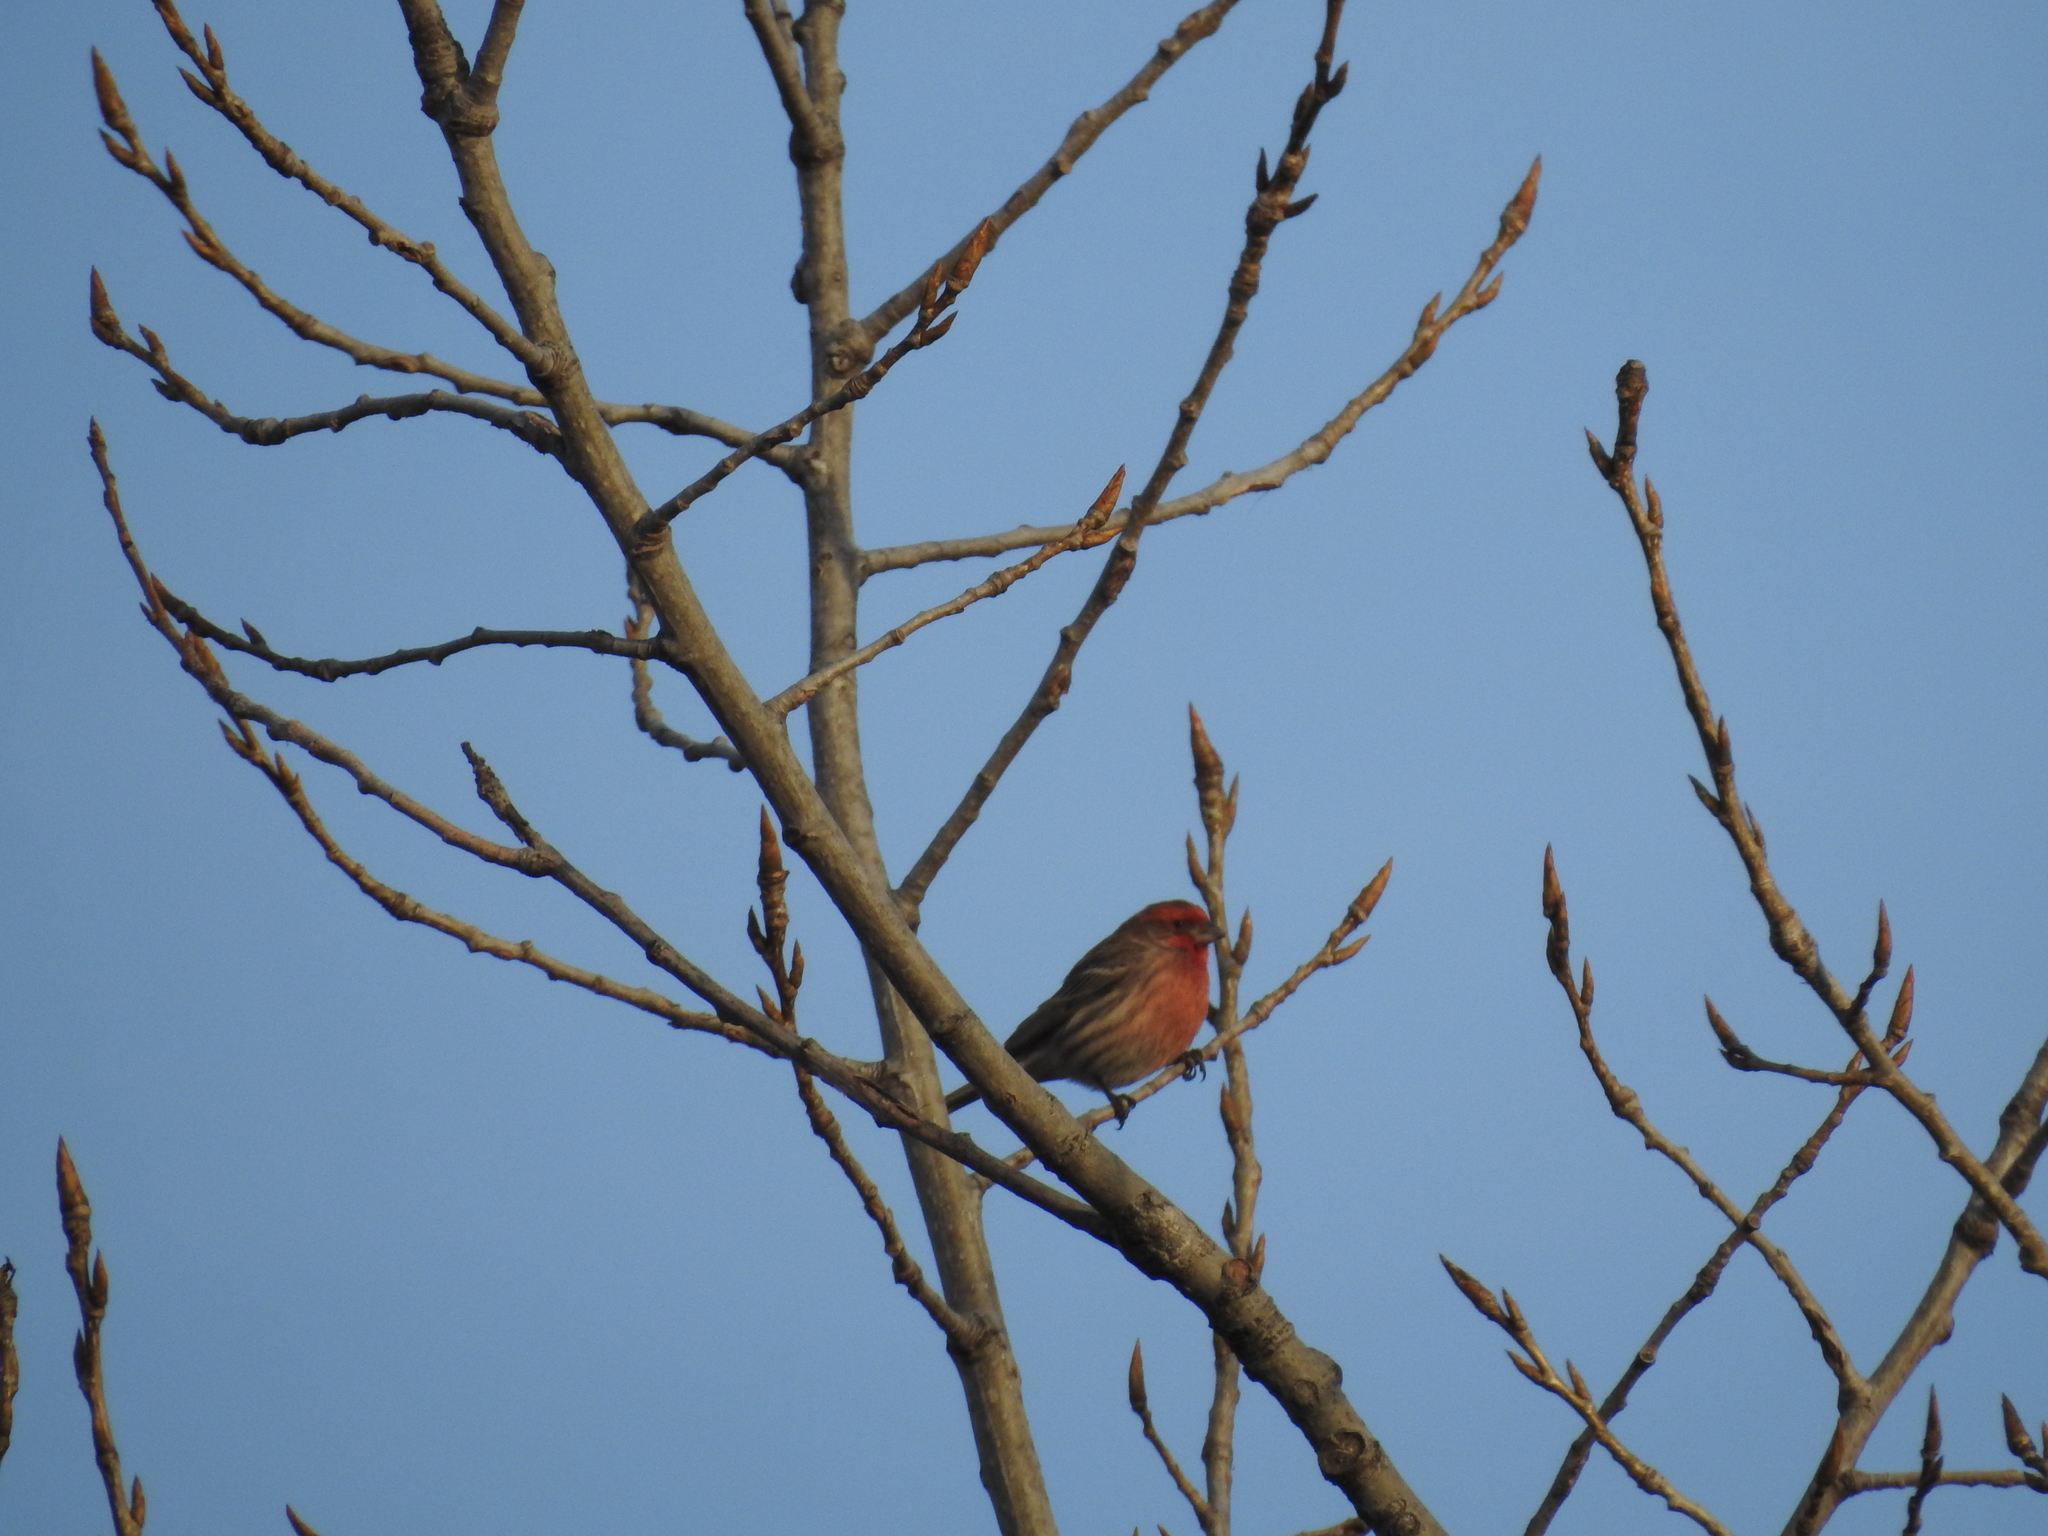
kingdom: Animalia
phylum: Chordata
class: Aves
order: Passeriformes
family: Fringillidae
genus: Haemorhous
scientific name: Haemorhous mexicanus
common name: House finch
